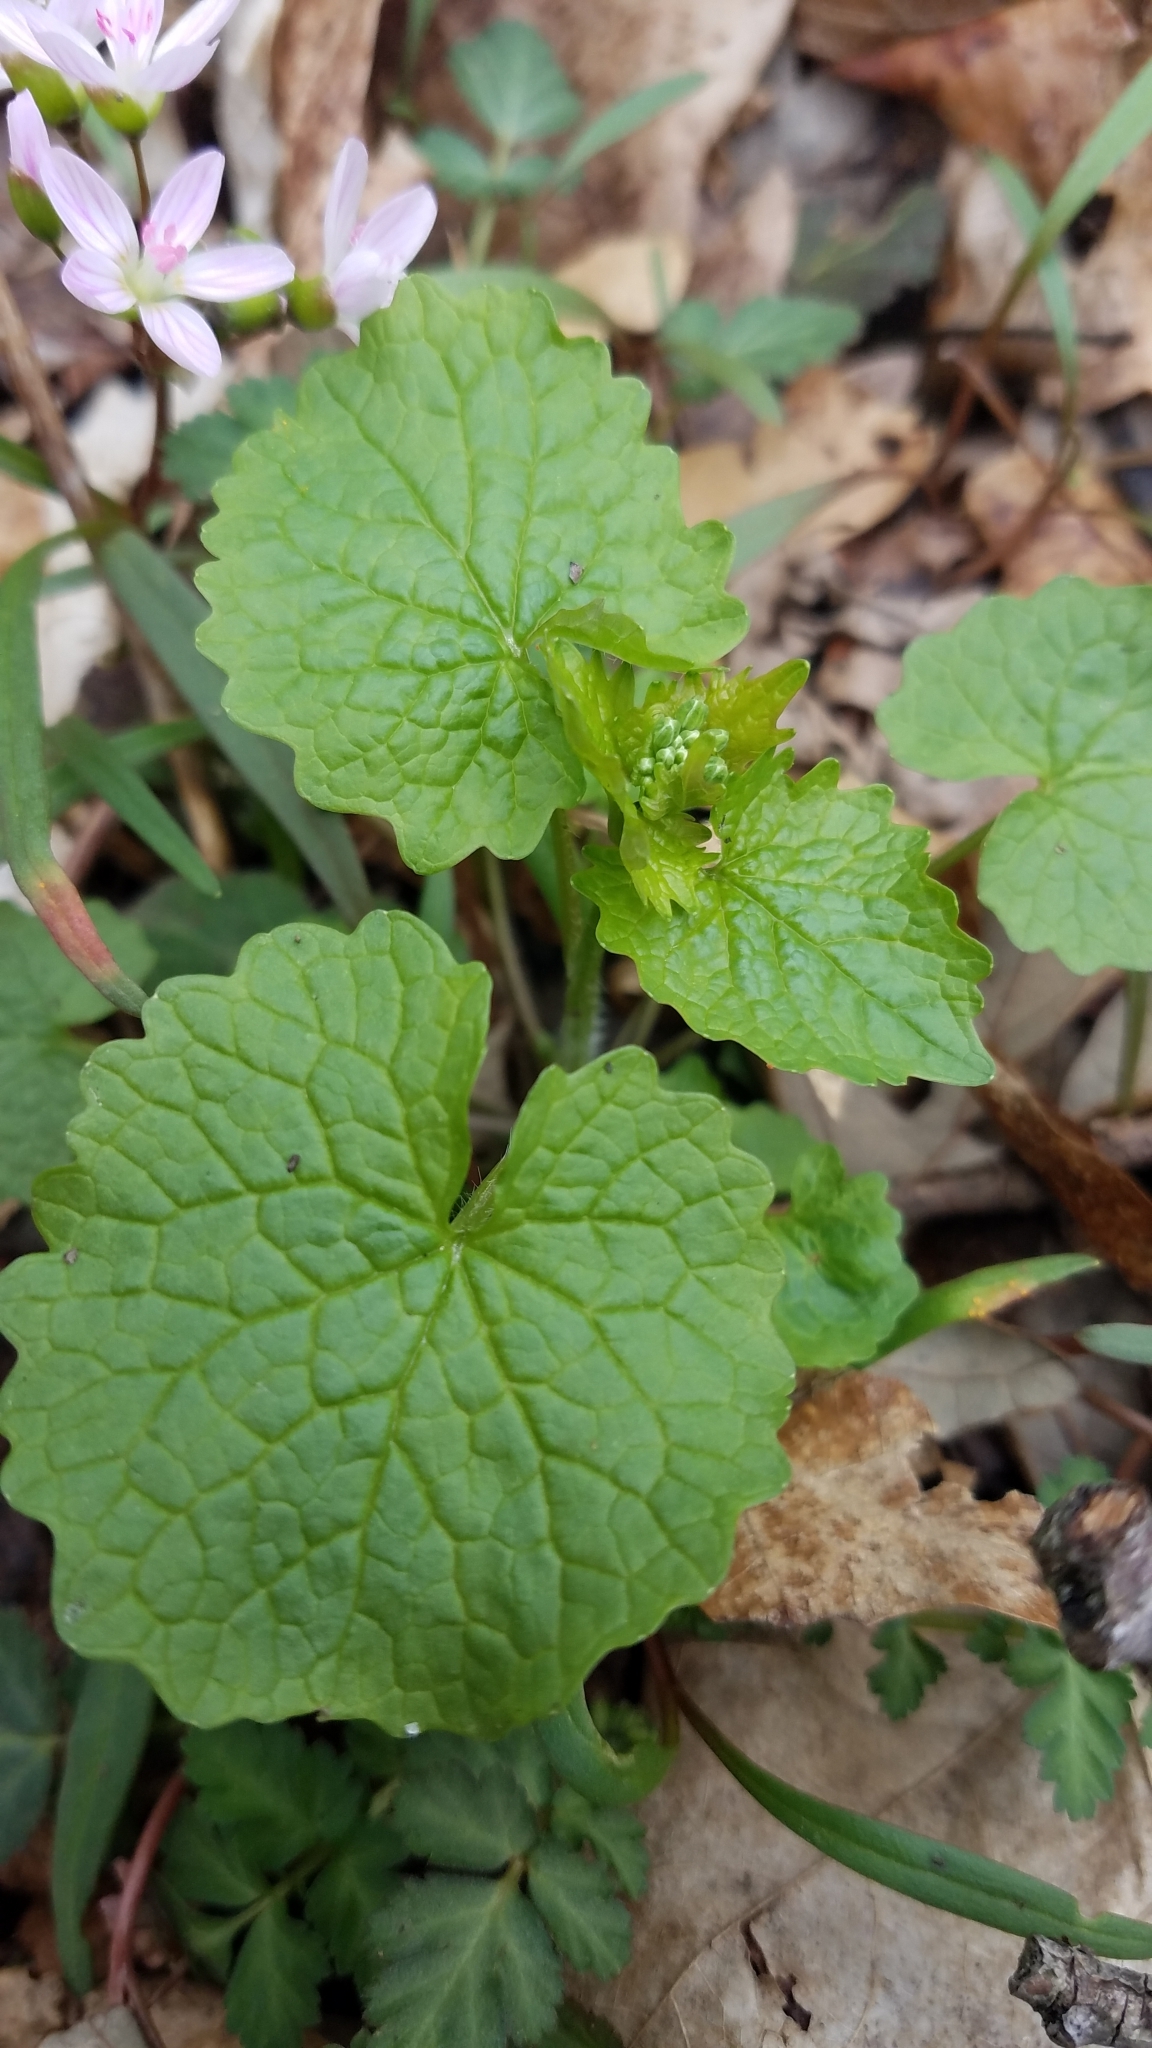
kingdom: Plantae
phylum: Tracheophyta
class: Magnoliopsida
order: Brassicales
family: Brassicaceae
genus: Alliaria
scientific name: Alliaria petiolata
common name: Garlic mustard
